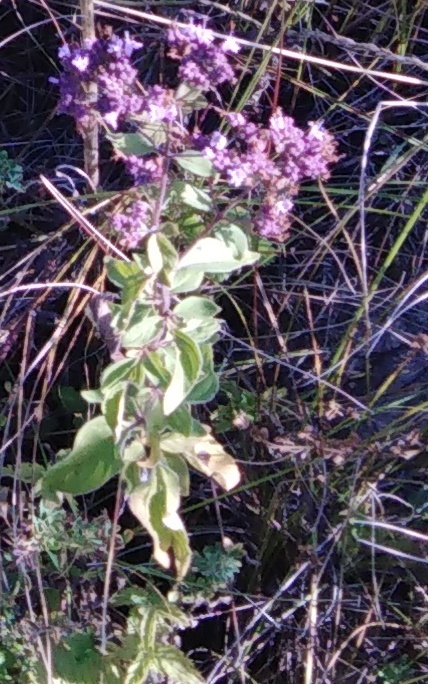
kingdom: Plantae
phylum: Tracheophyta
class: Magnoliopsida
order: Lamiales
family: Lamiaceae
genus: Origanum
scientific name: Origanum vulgare
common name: Wild marjoram
